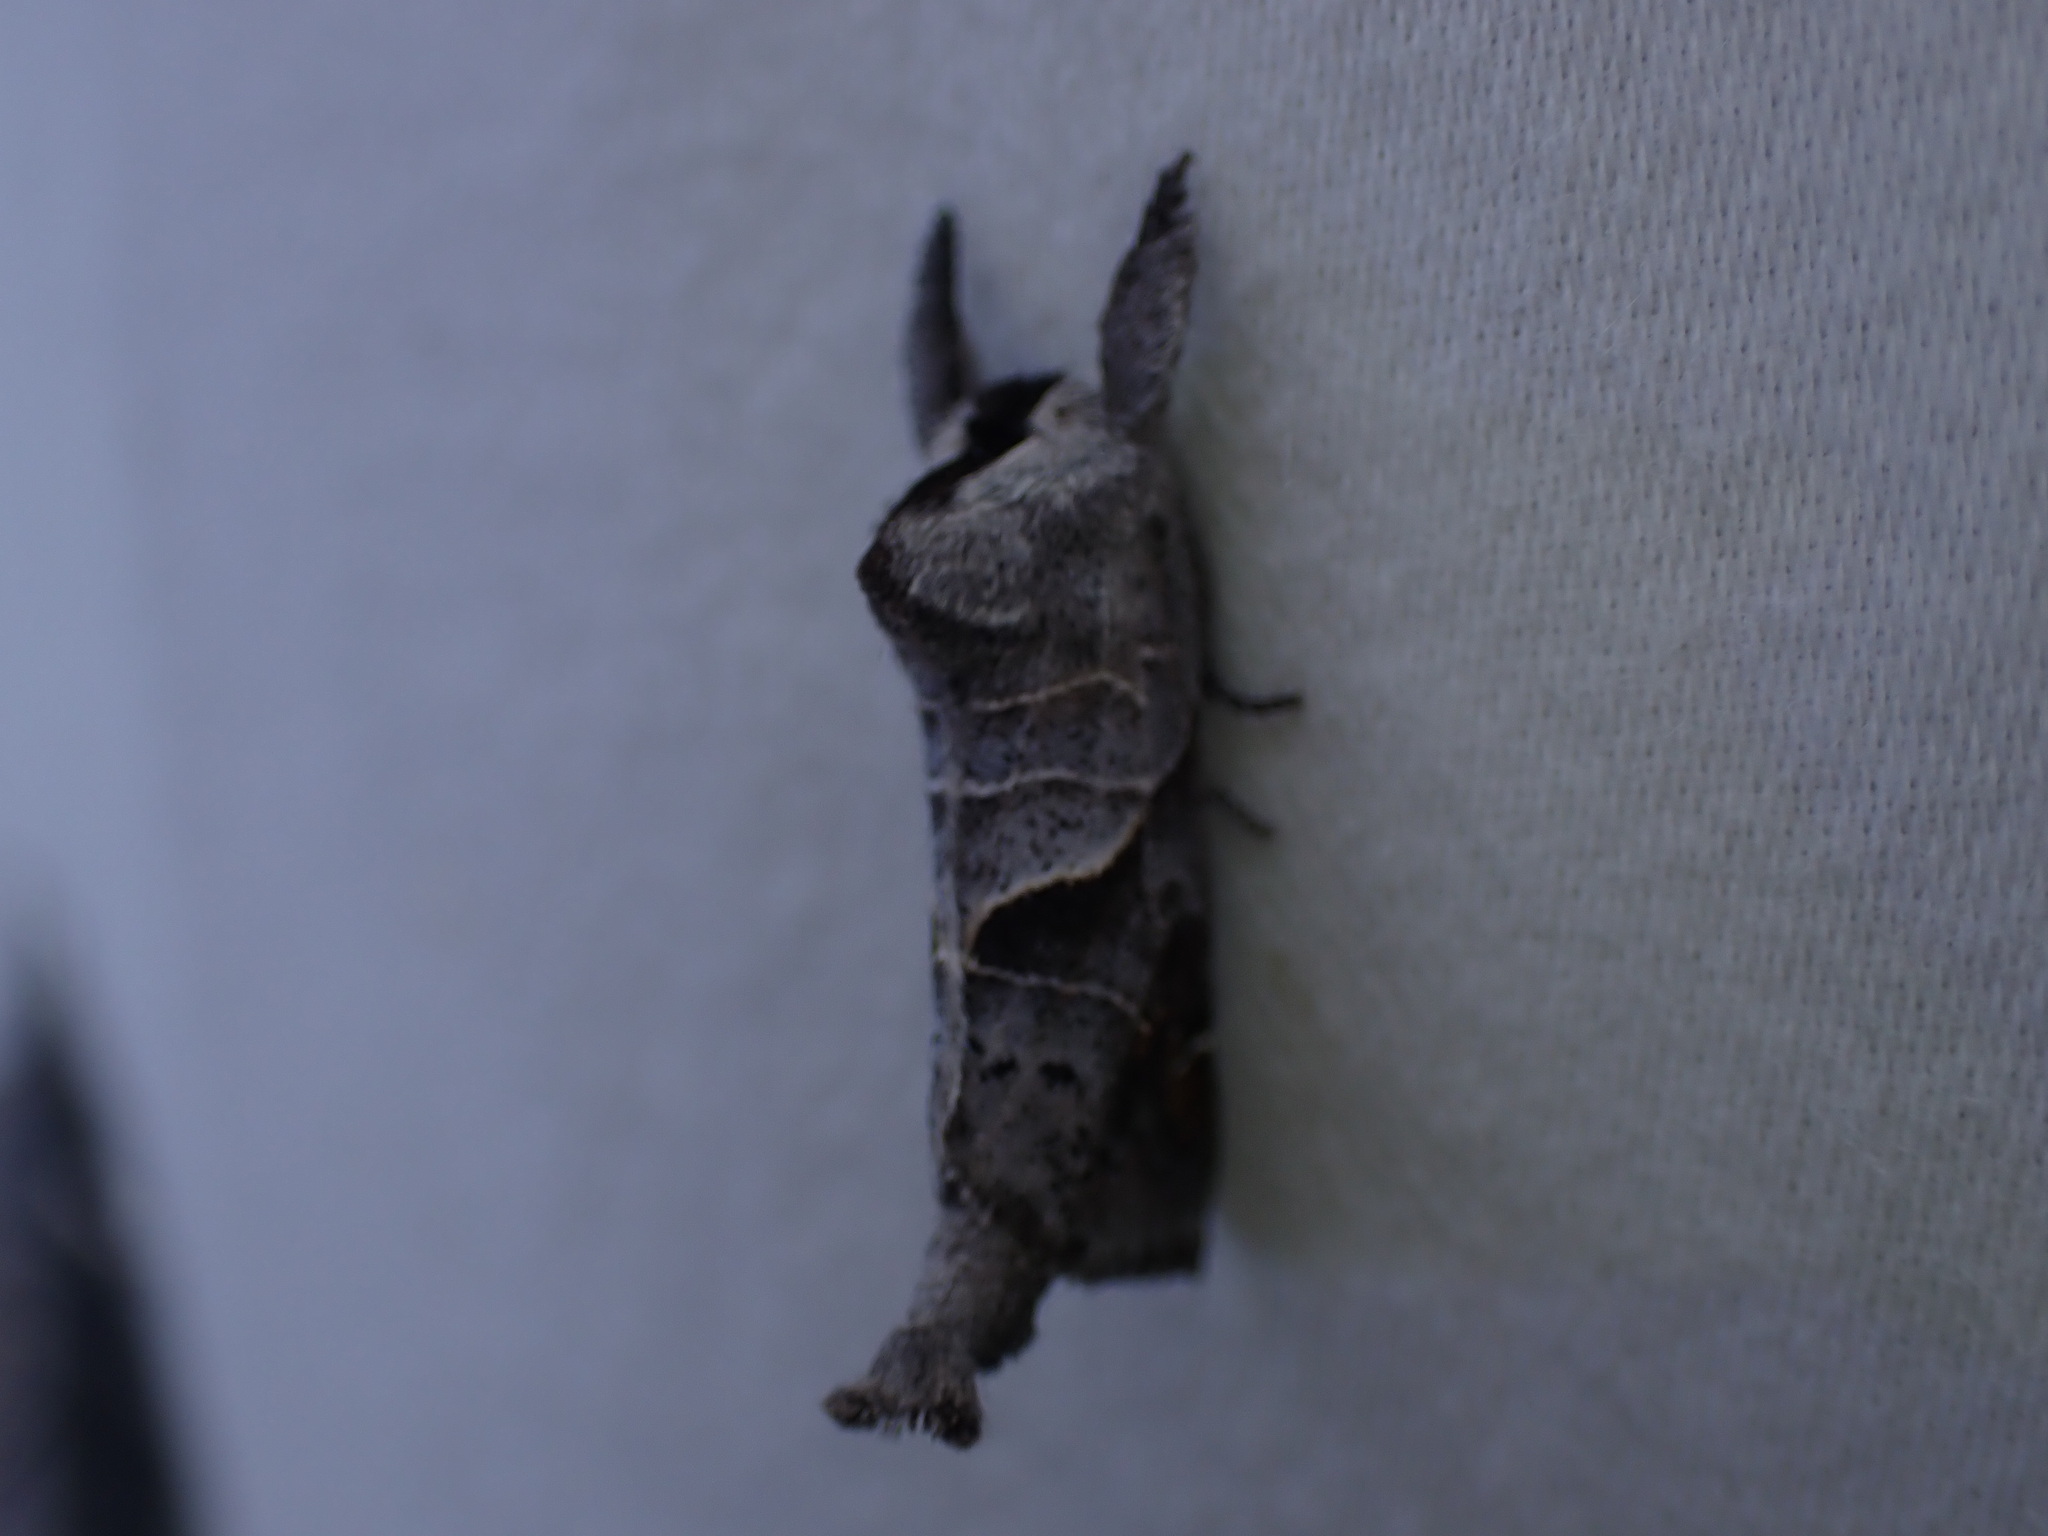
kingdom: Animalia
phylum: Arthropoda
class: Insecta
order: Lepidoptera
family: Notodontidae
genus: Clostera
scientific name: Clostera apicalis
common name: Apical prominent
